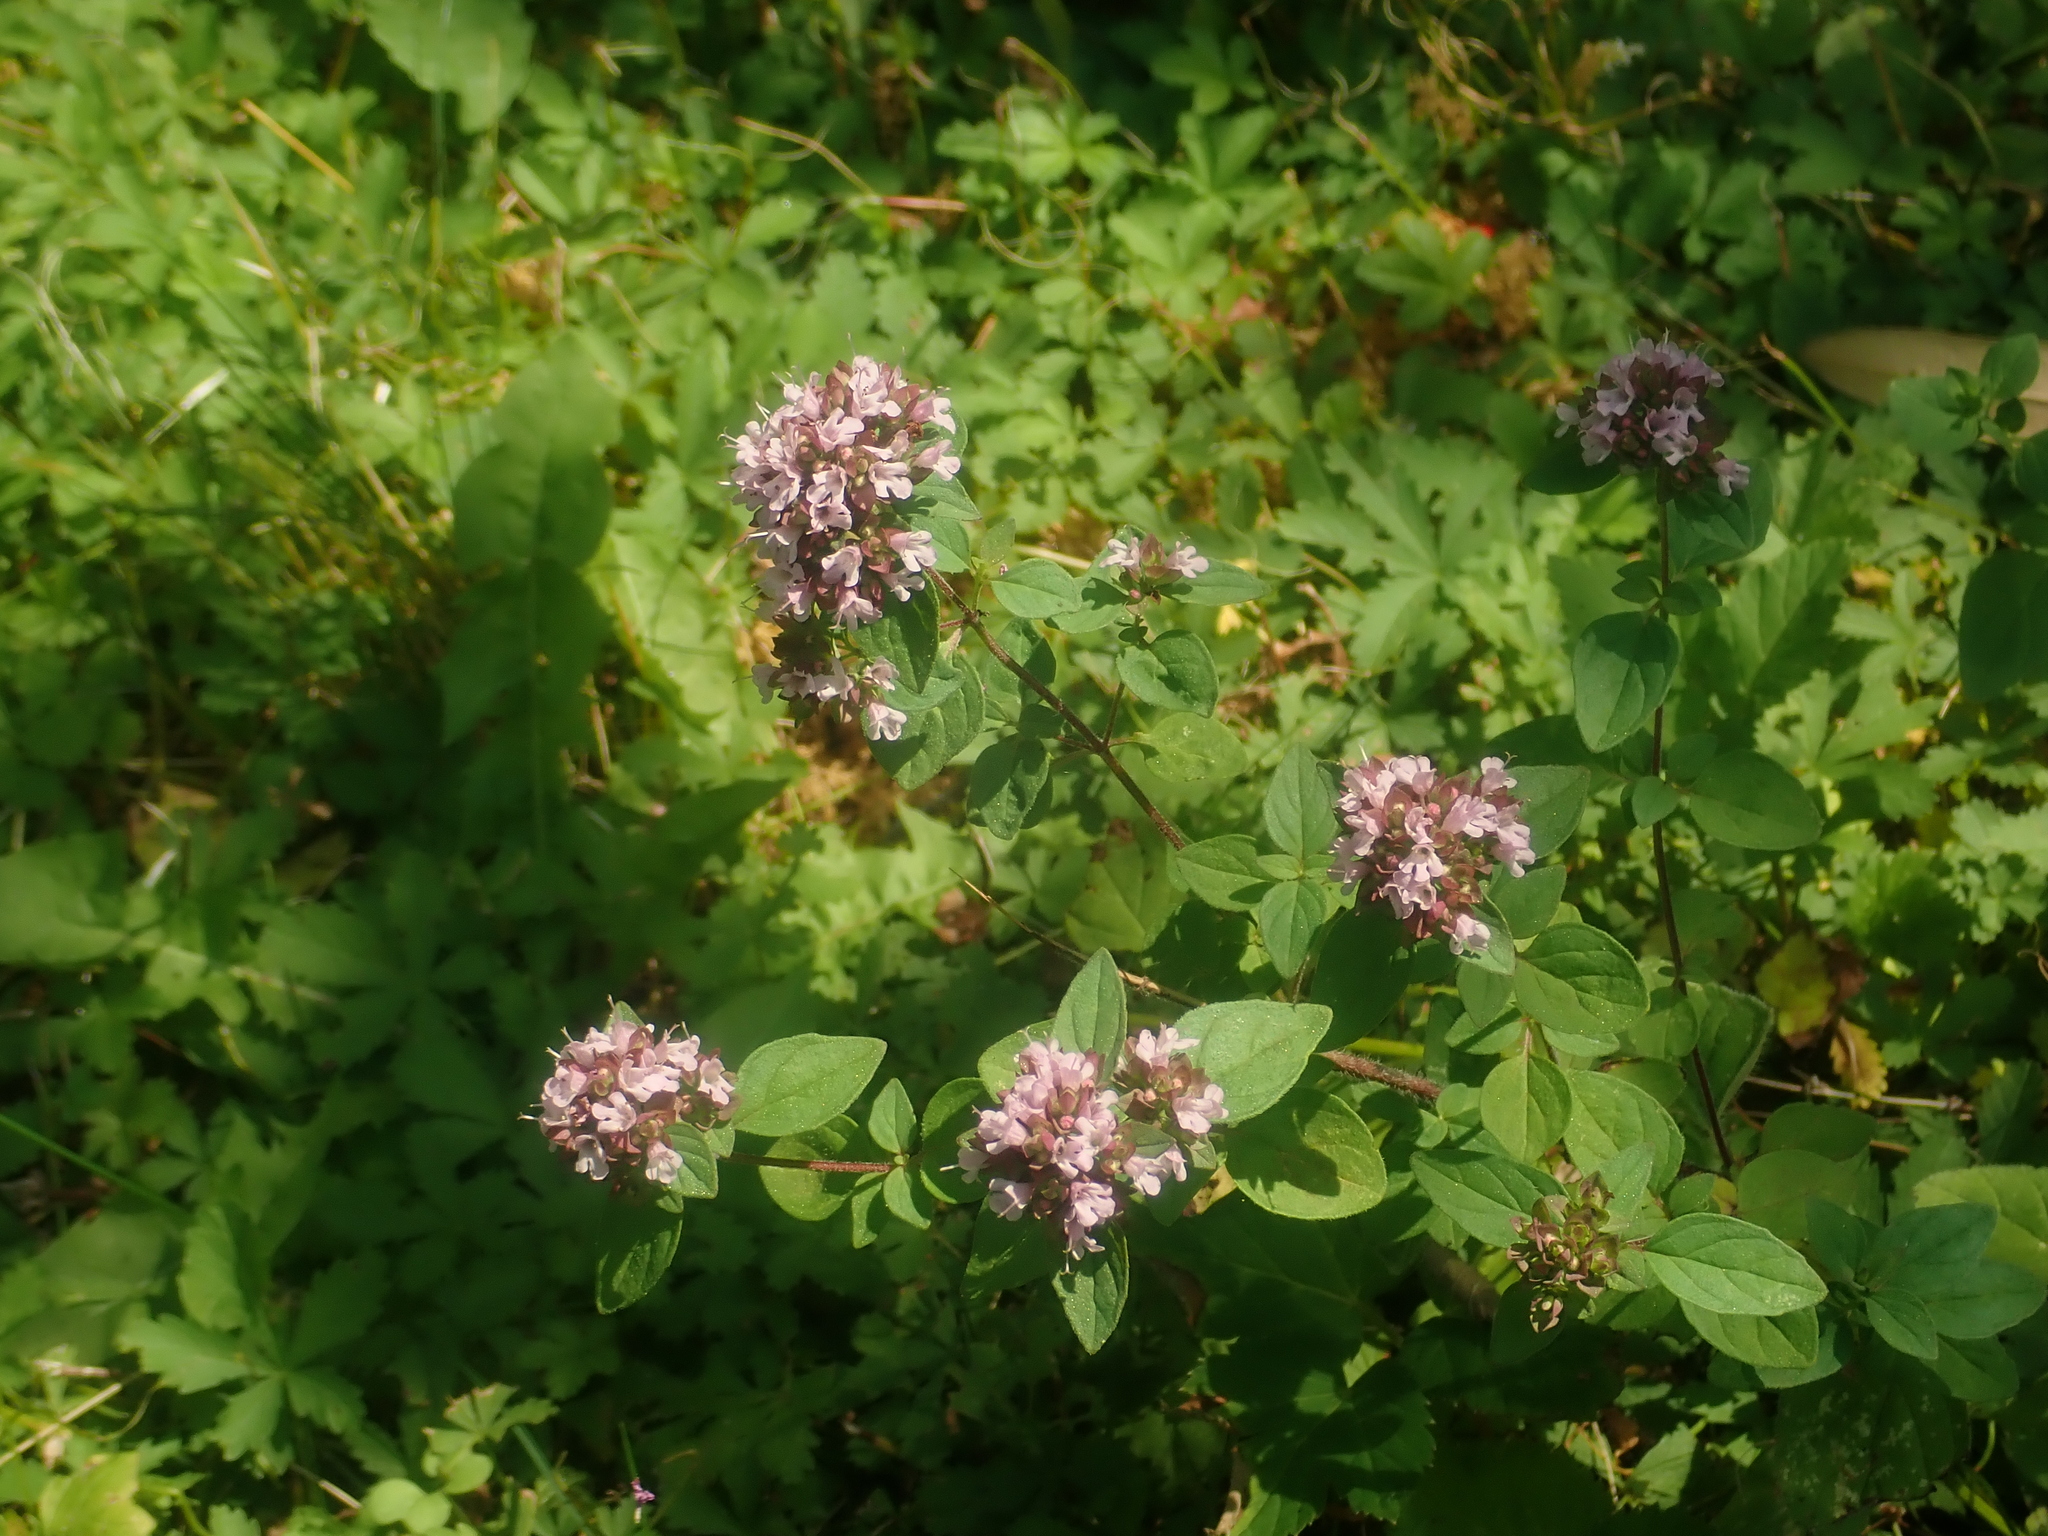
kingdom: Plantae
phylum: Tracheophyta
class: Magnoliopsida
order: Lamiales
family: Lamiaceae
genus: Origanum
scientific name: Origanum vulgare
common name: Wild marjoram
